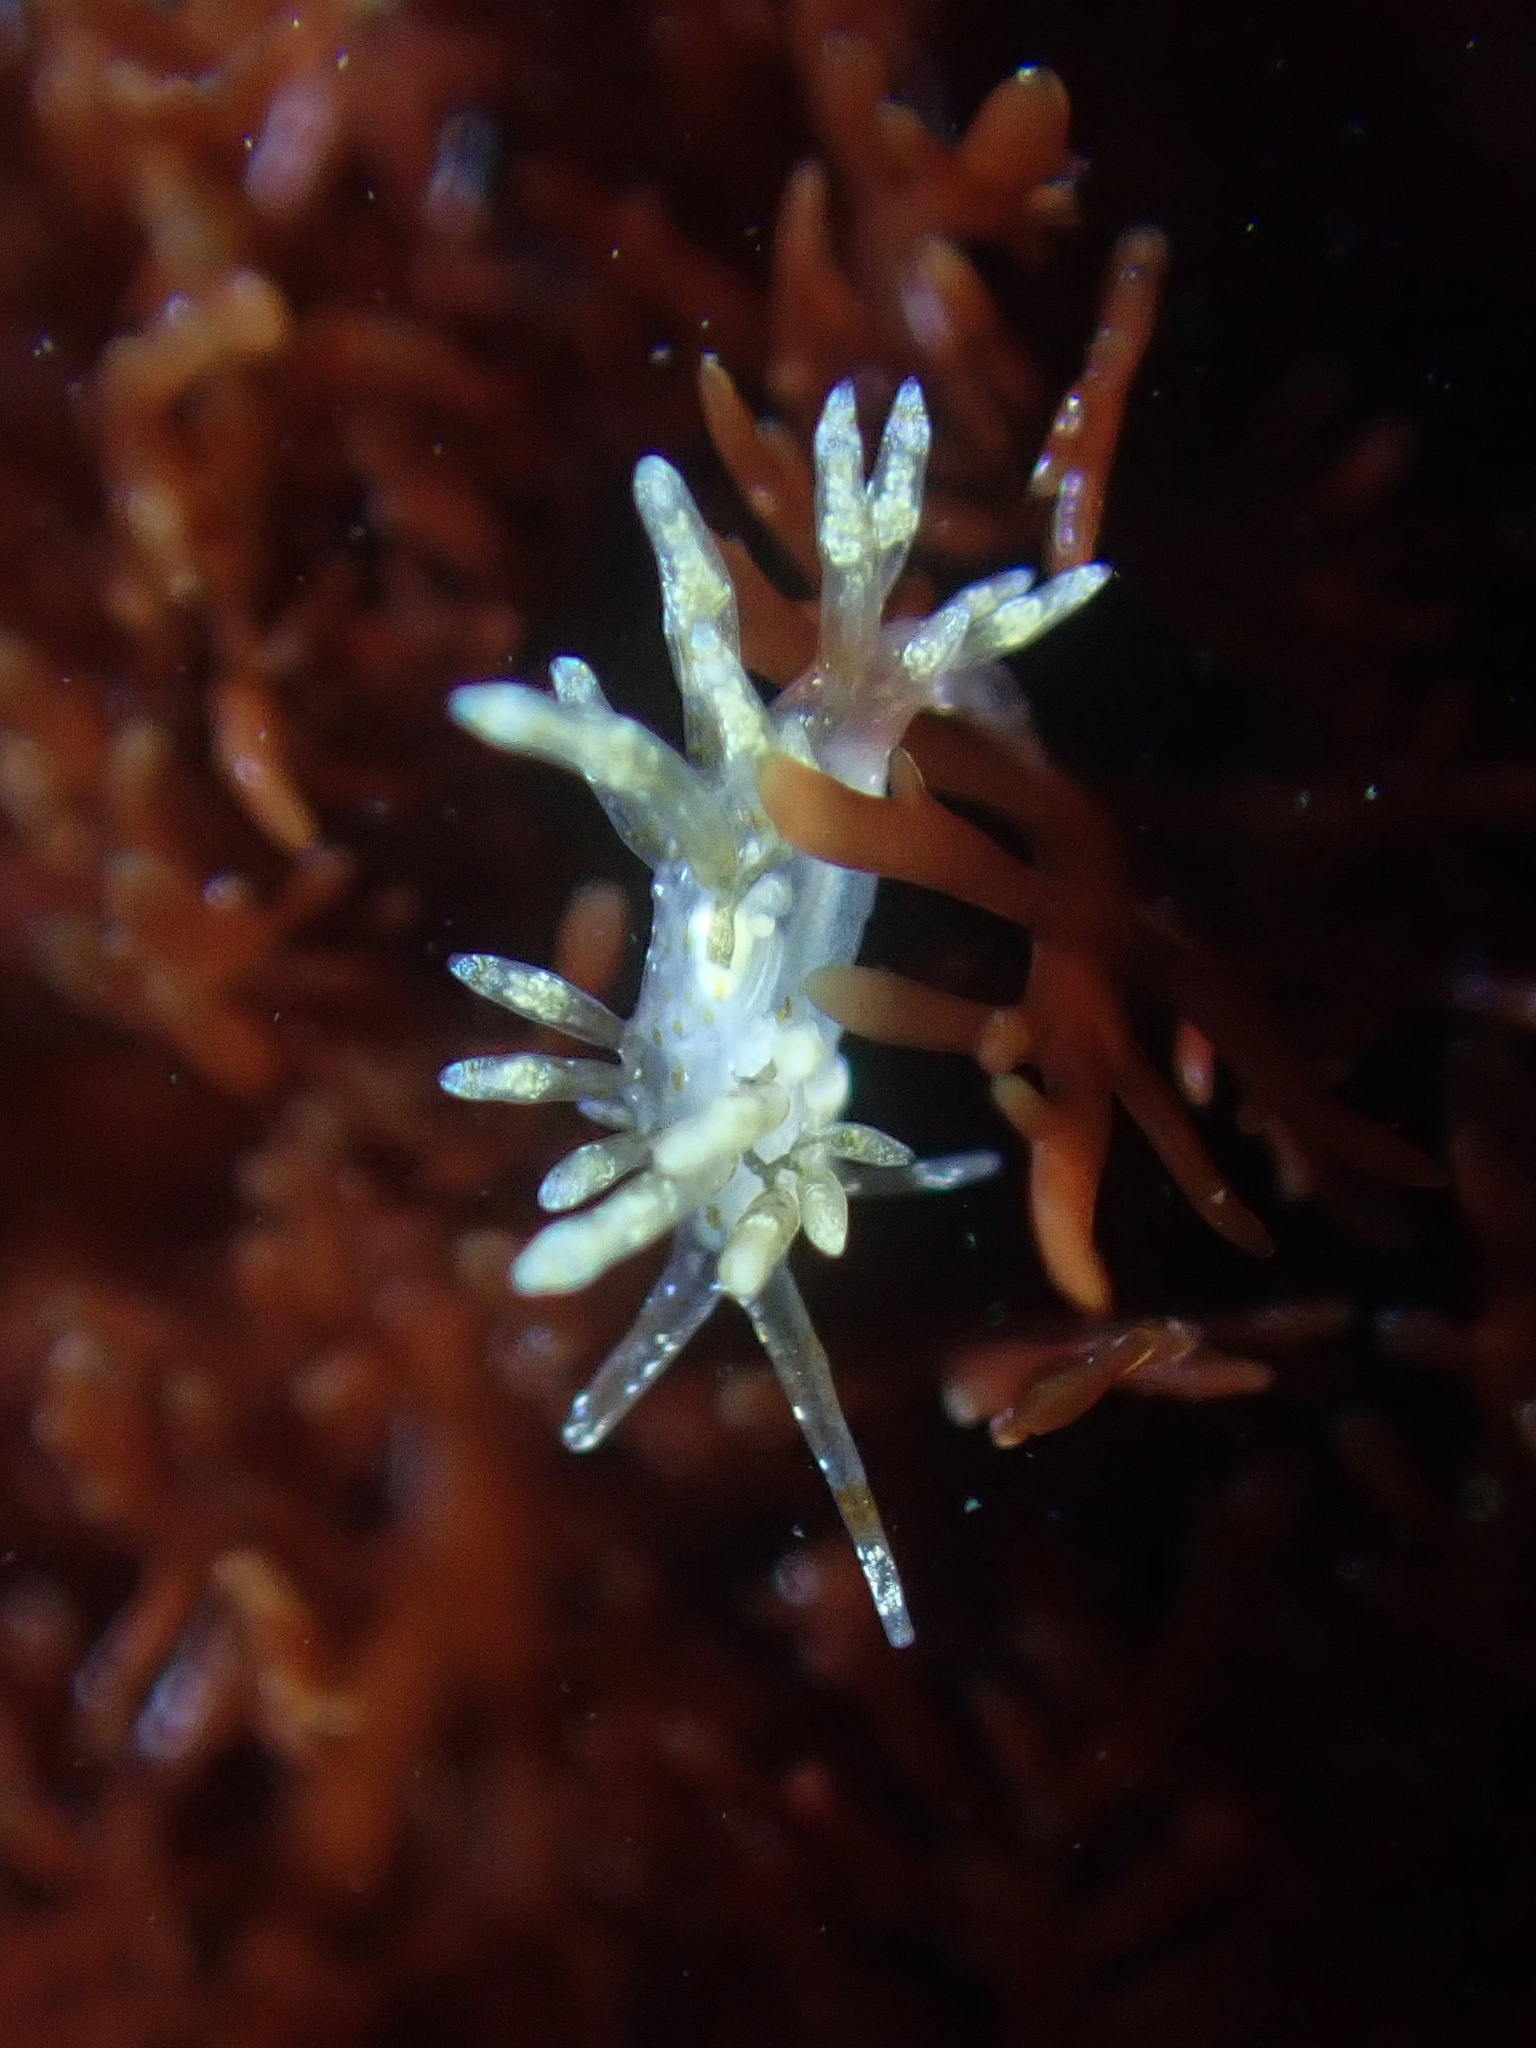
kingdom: Animalia
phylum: Mollusca
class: Gastropoda
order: Nudibranchia
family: Eubranchidae
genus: Eubranchus
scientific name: Eubranchus olivaceus
